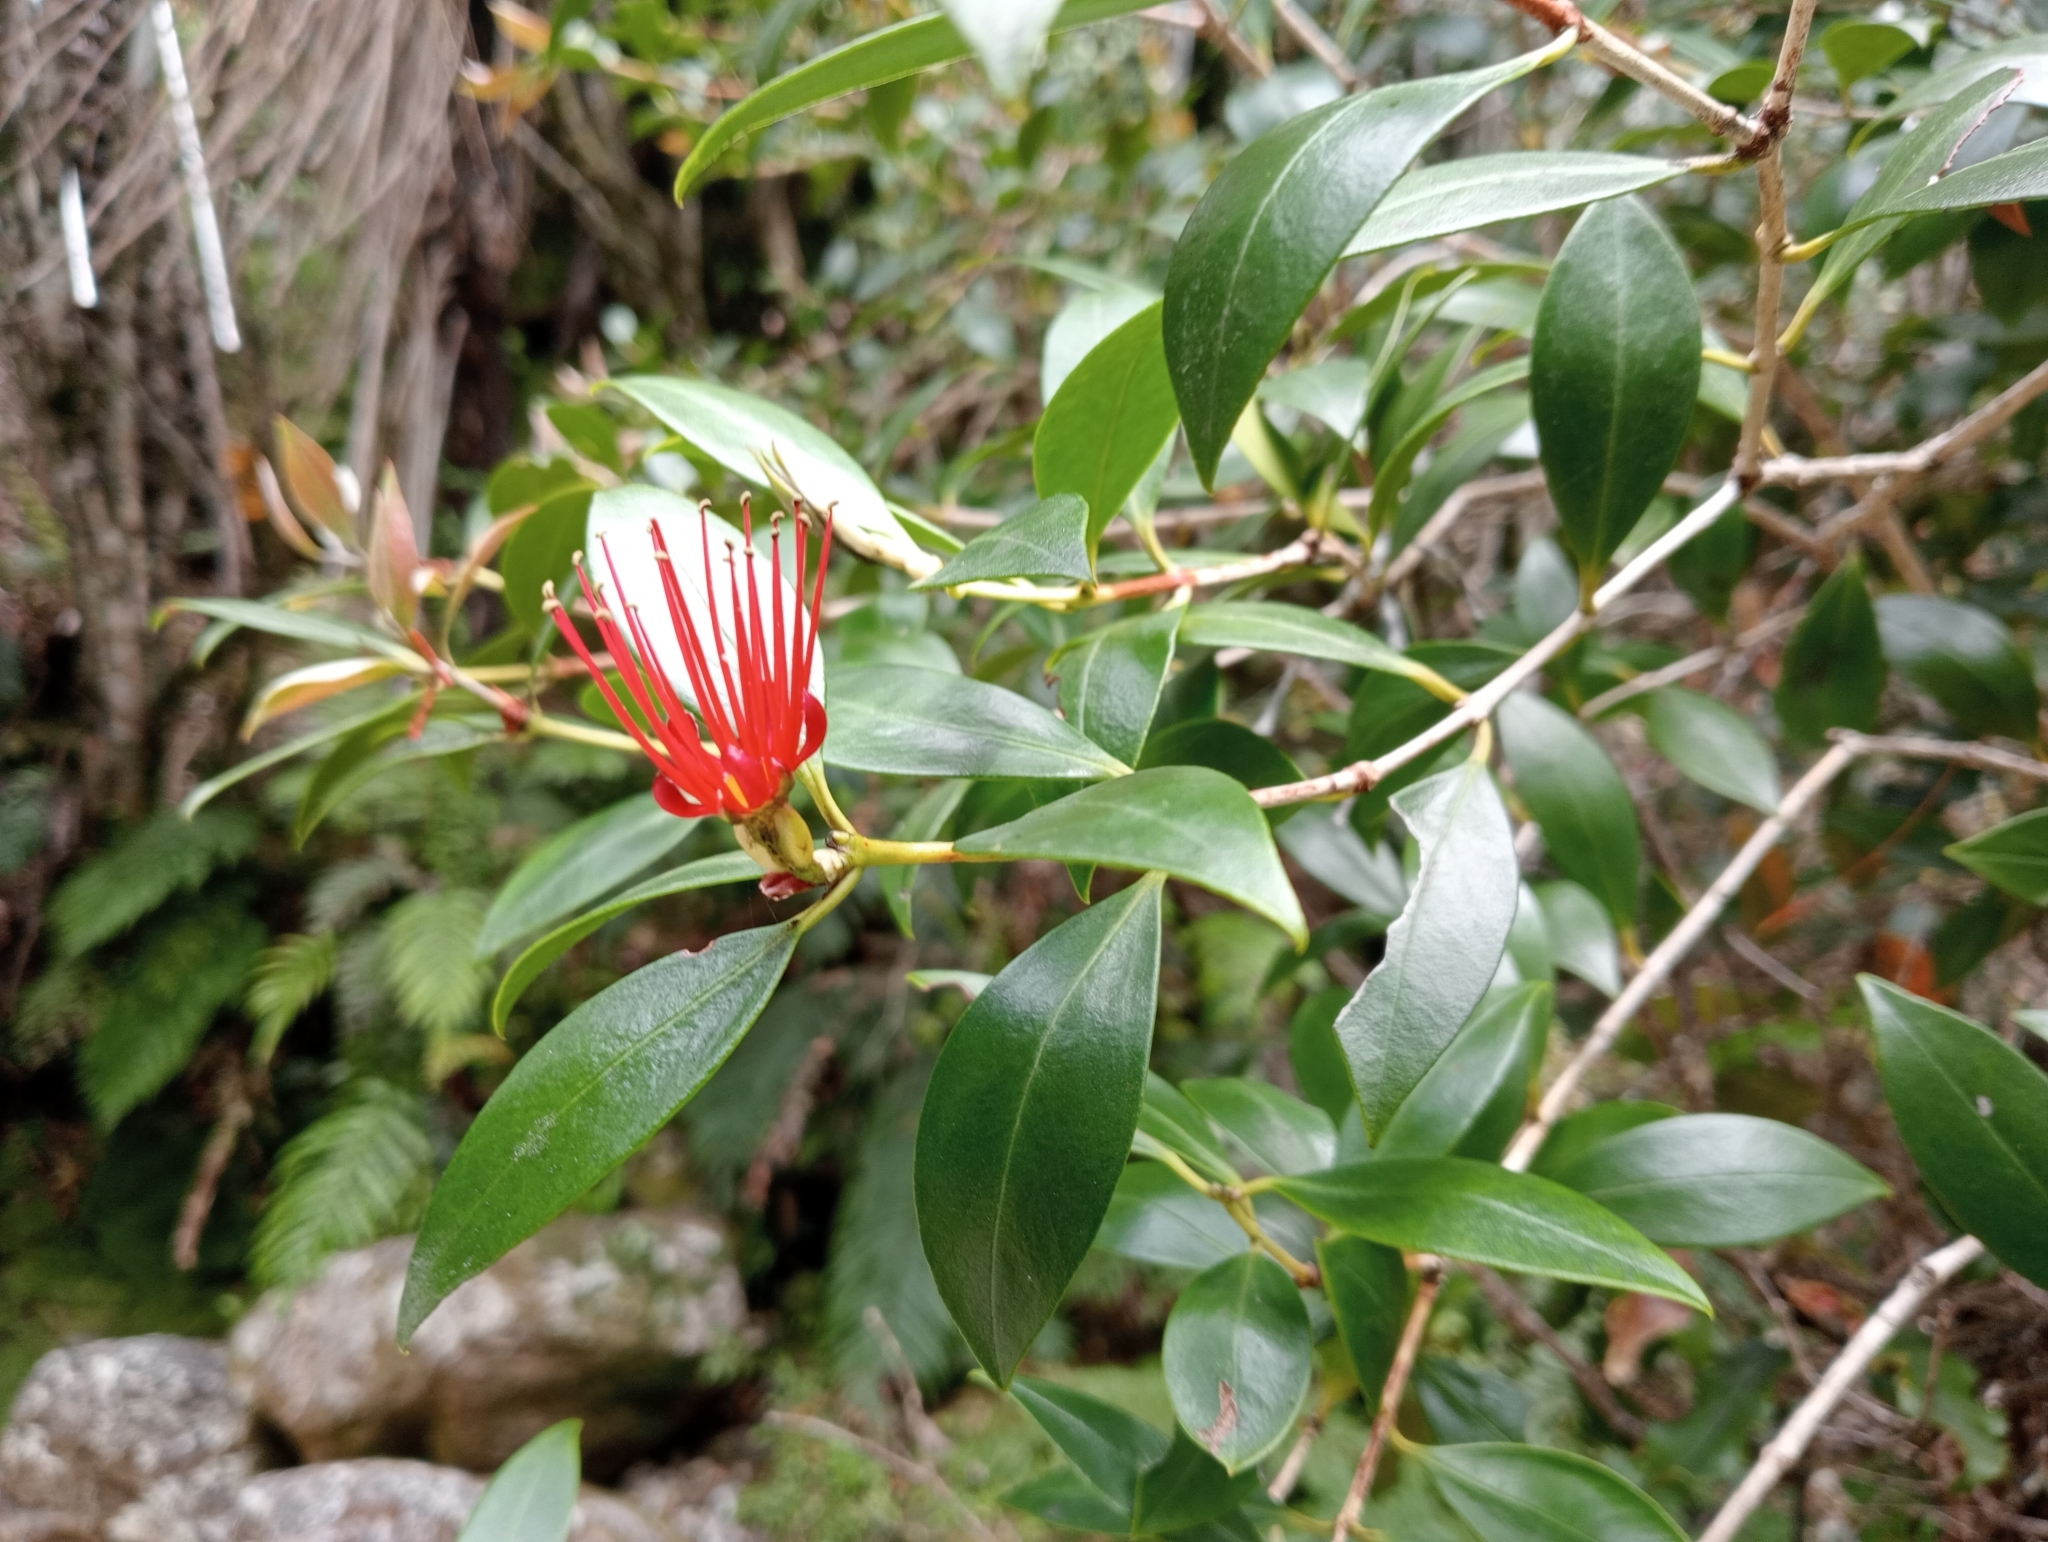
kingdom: Plantae
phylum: Tracheophyta
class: Magnoliopsida
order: Myrtales
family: Myrtaceae
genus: Metrosideros
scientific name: Metrosideros umbellata
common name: Southern rata
